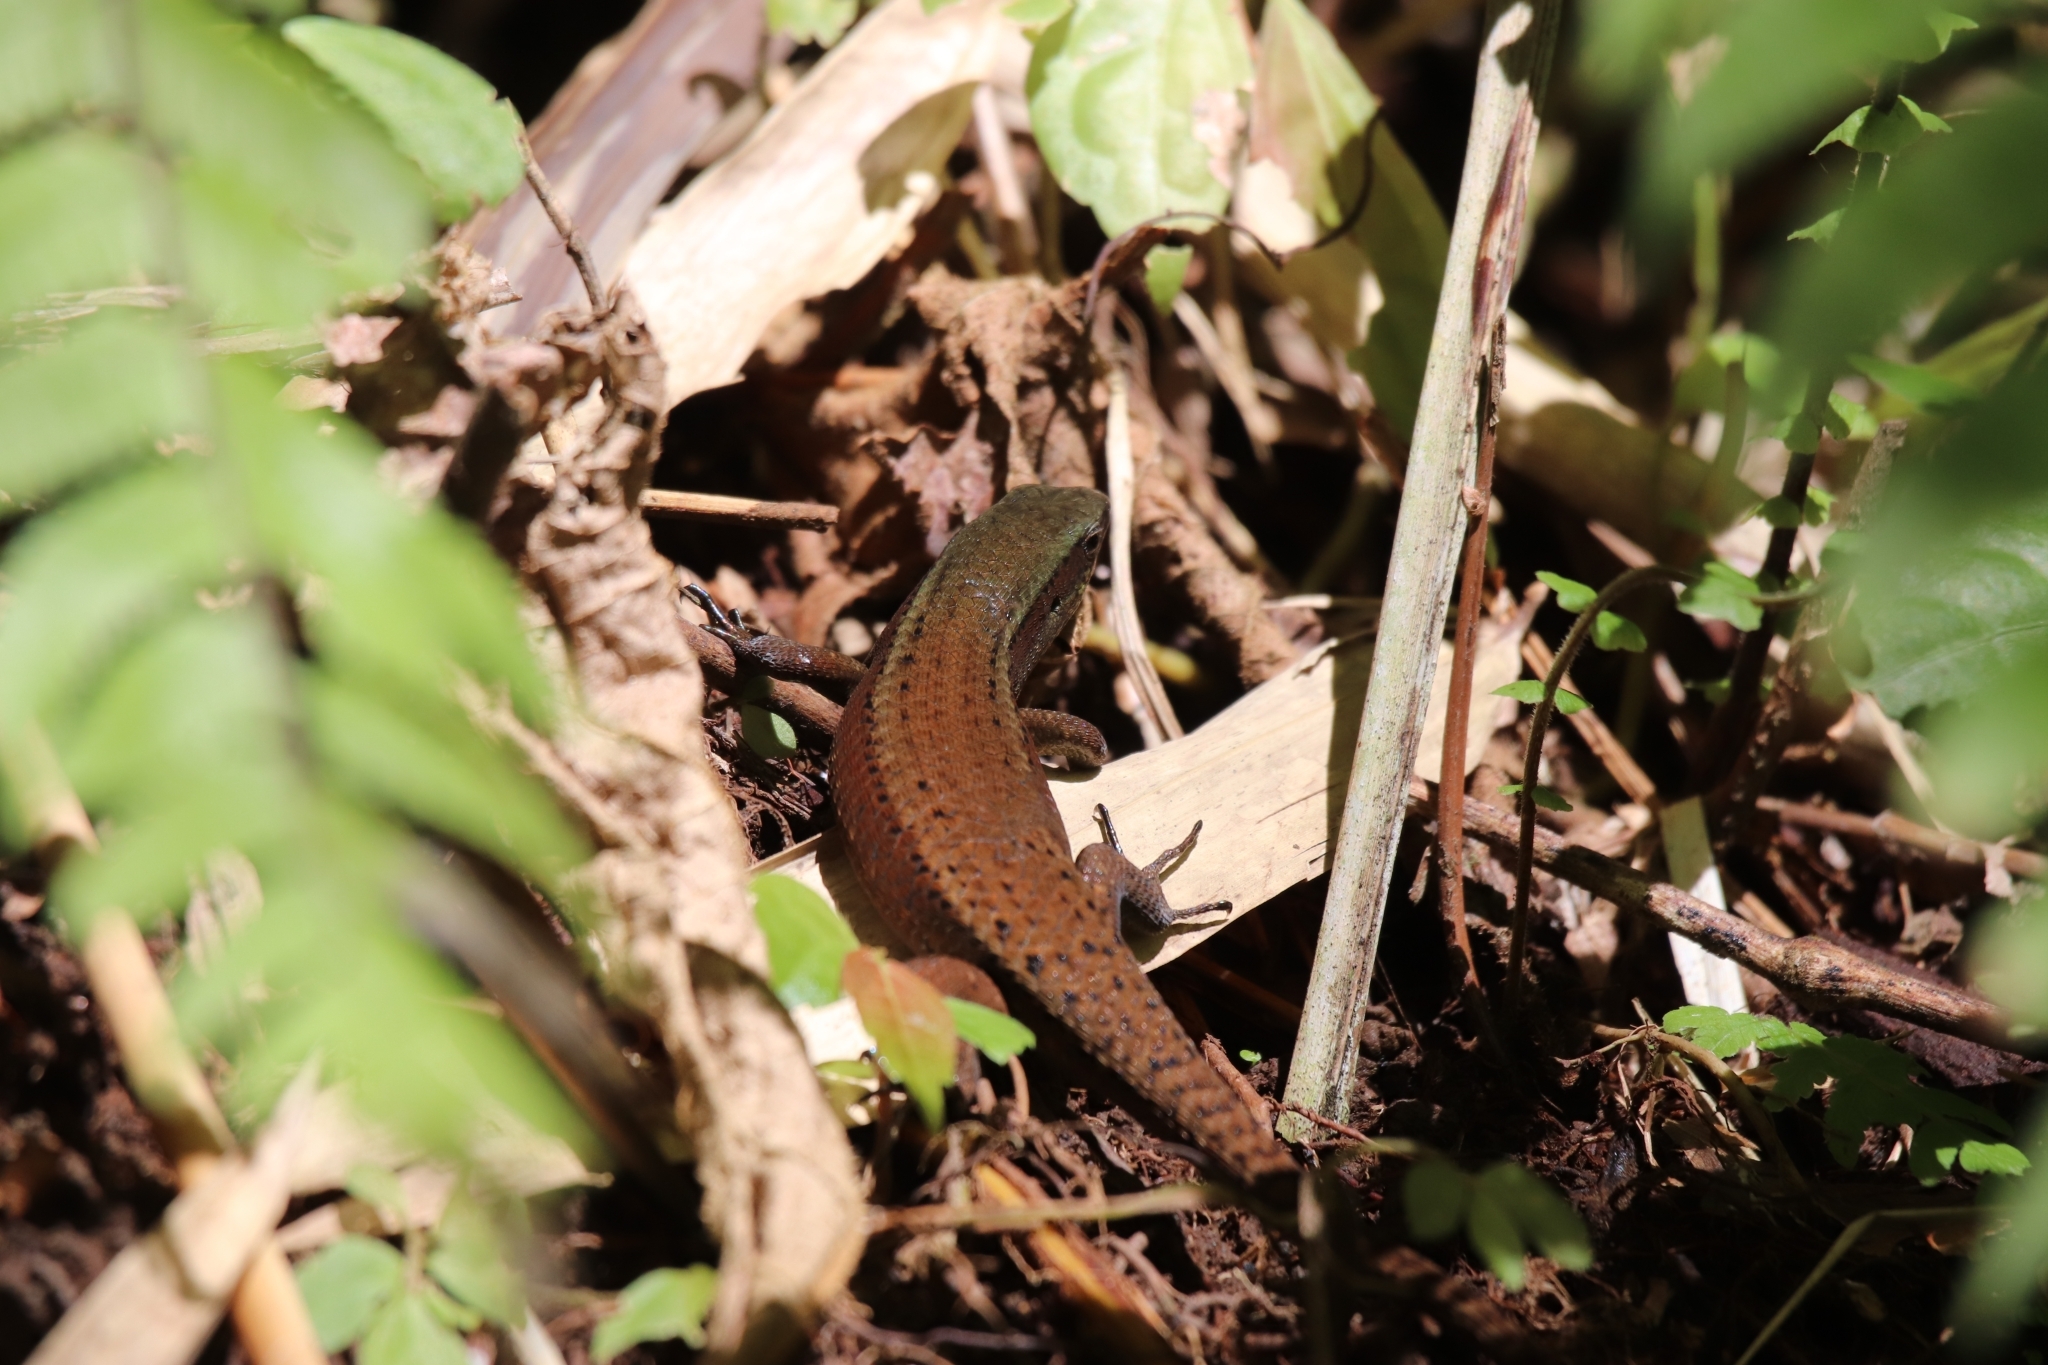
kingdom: Animalia
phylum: Chordata
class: Squamata
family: Scincidae
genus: Eutropis
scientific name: Eutropis rudis
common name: Rough mabuya
